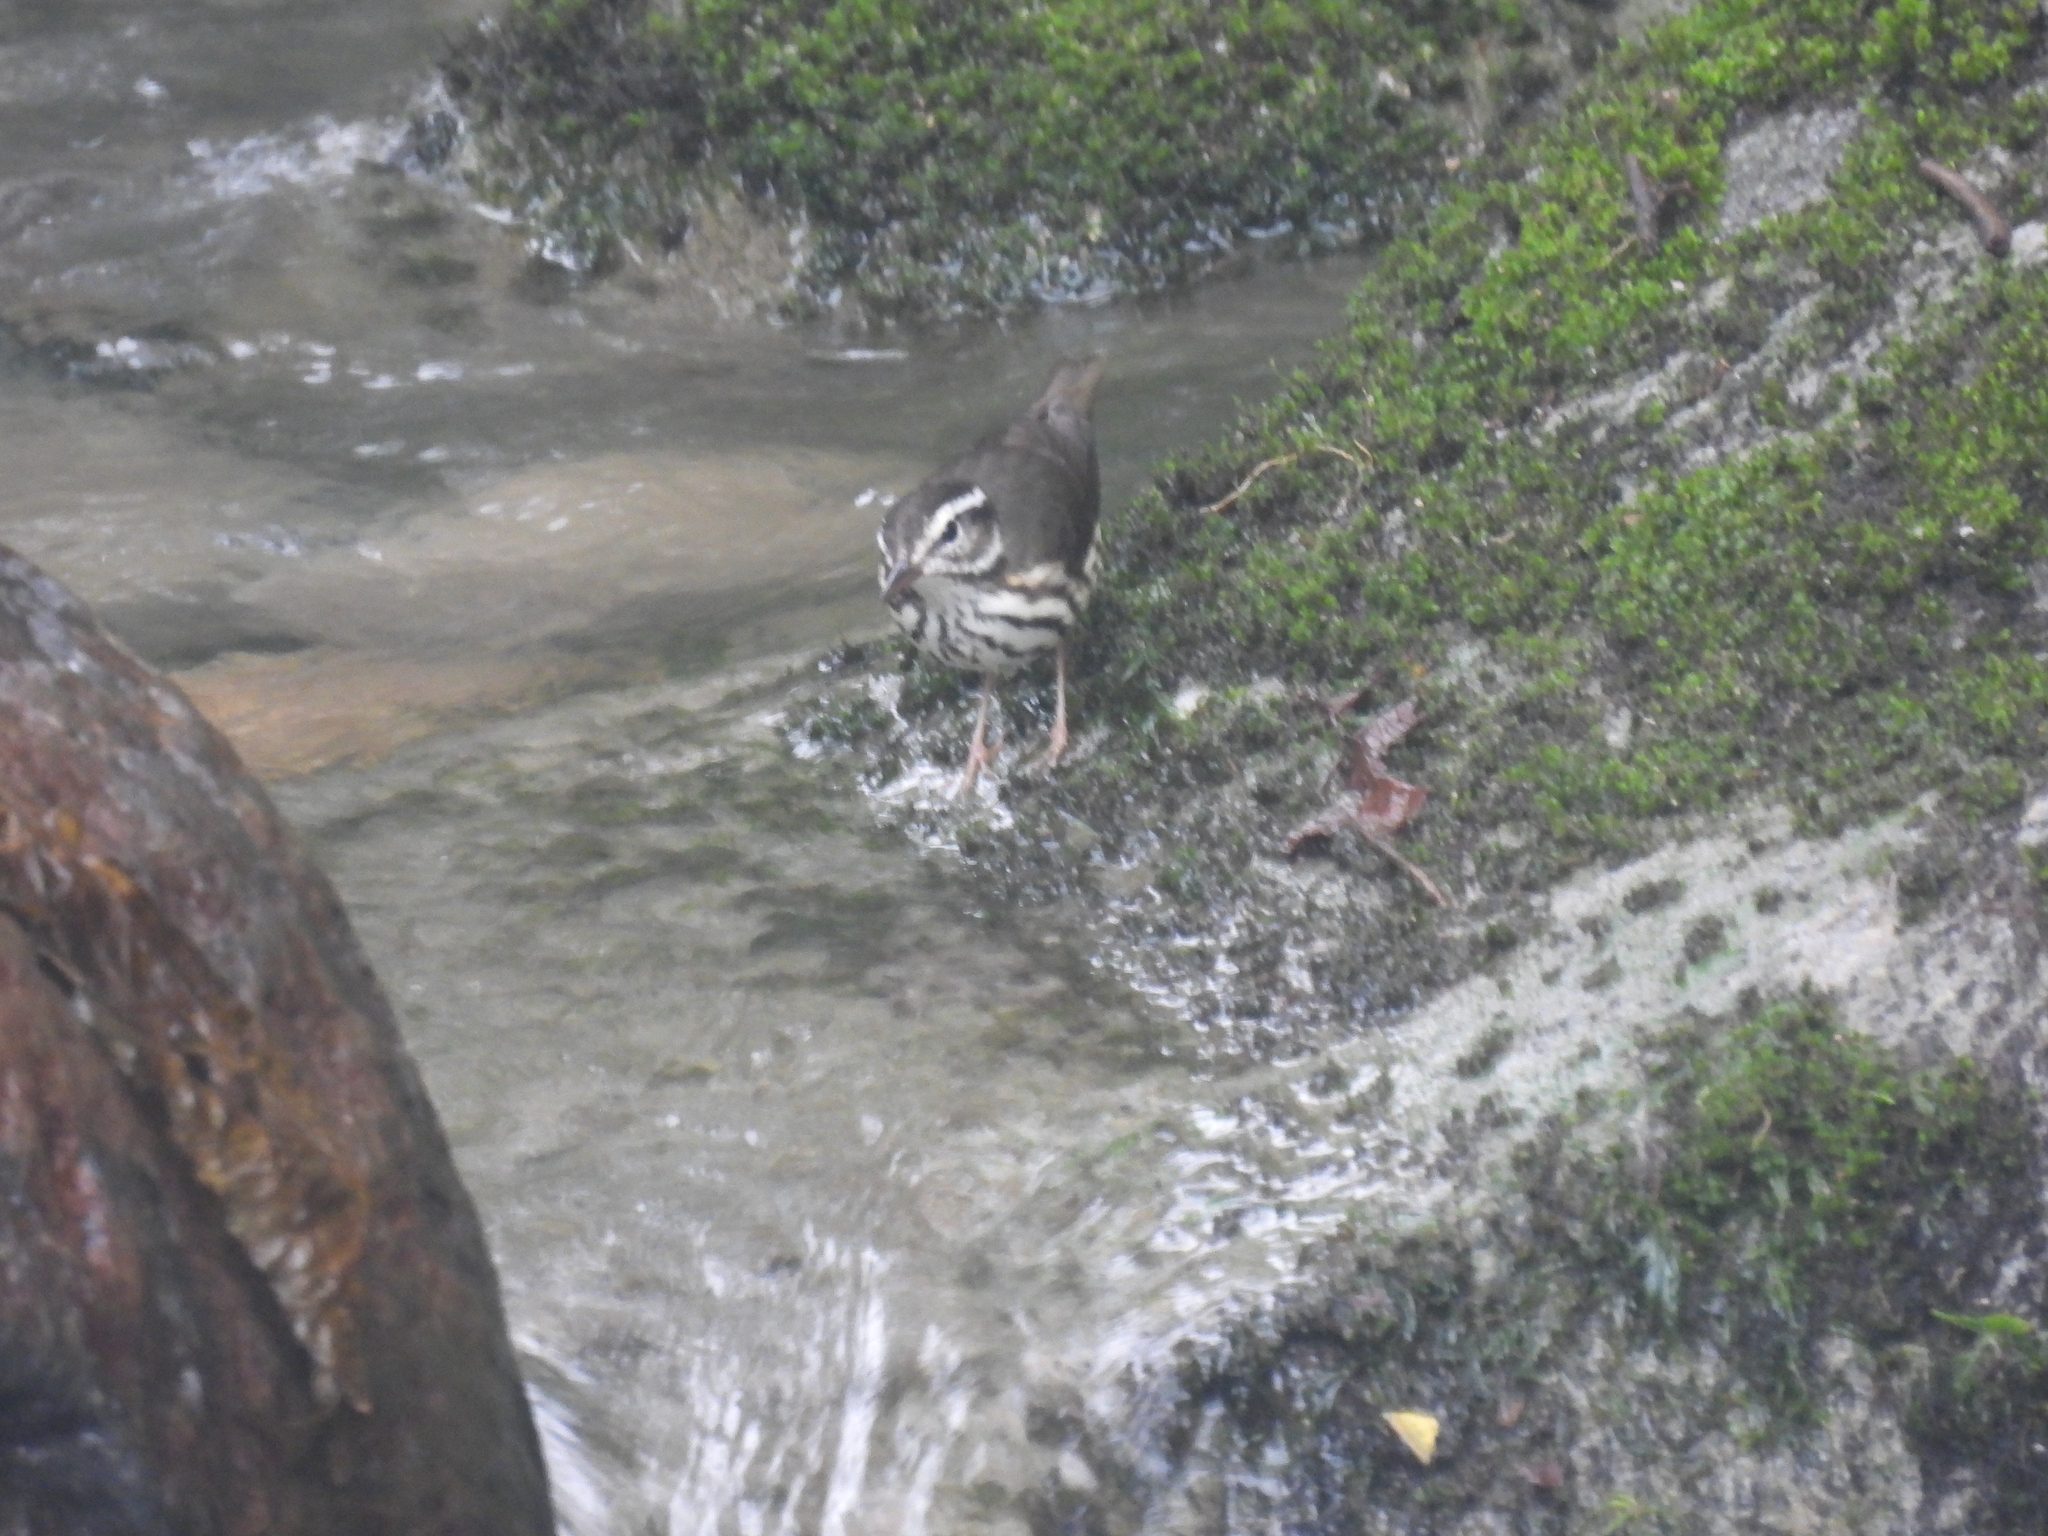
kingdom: Animalia
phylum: Chordata
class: Aves
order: Passeriformes
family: Parulidae
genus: Parkesia
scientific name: Parkesia motacilla
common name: Louisiana waterthrush
